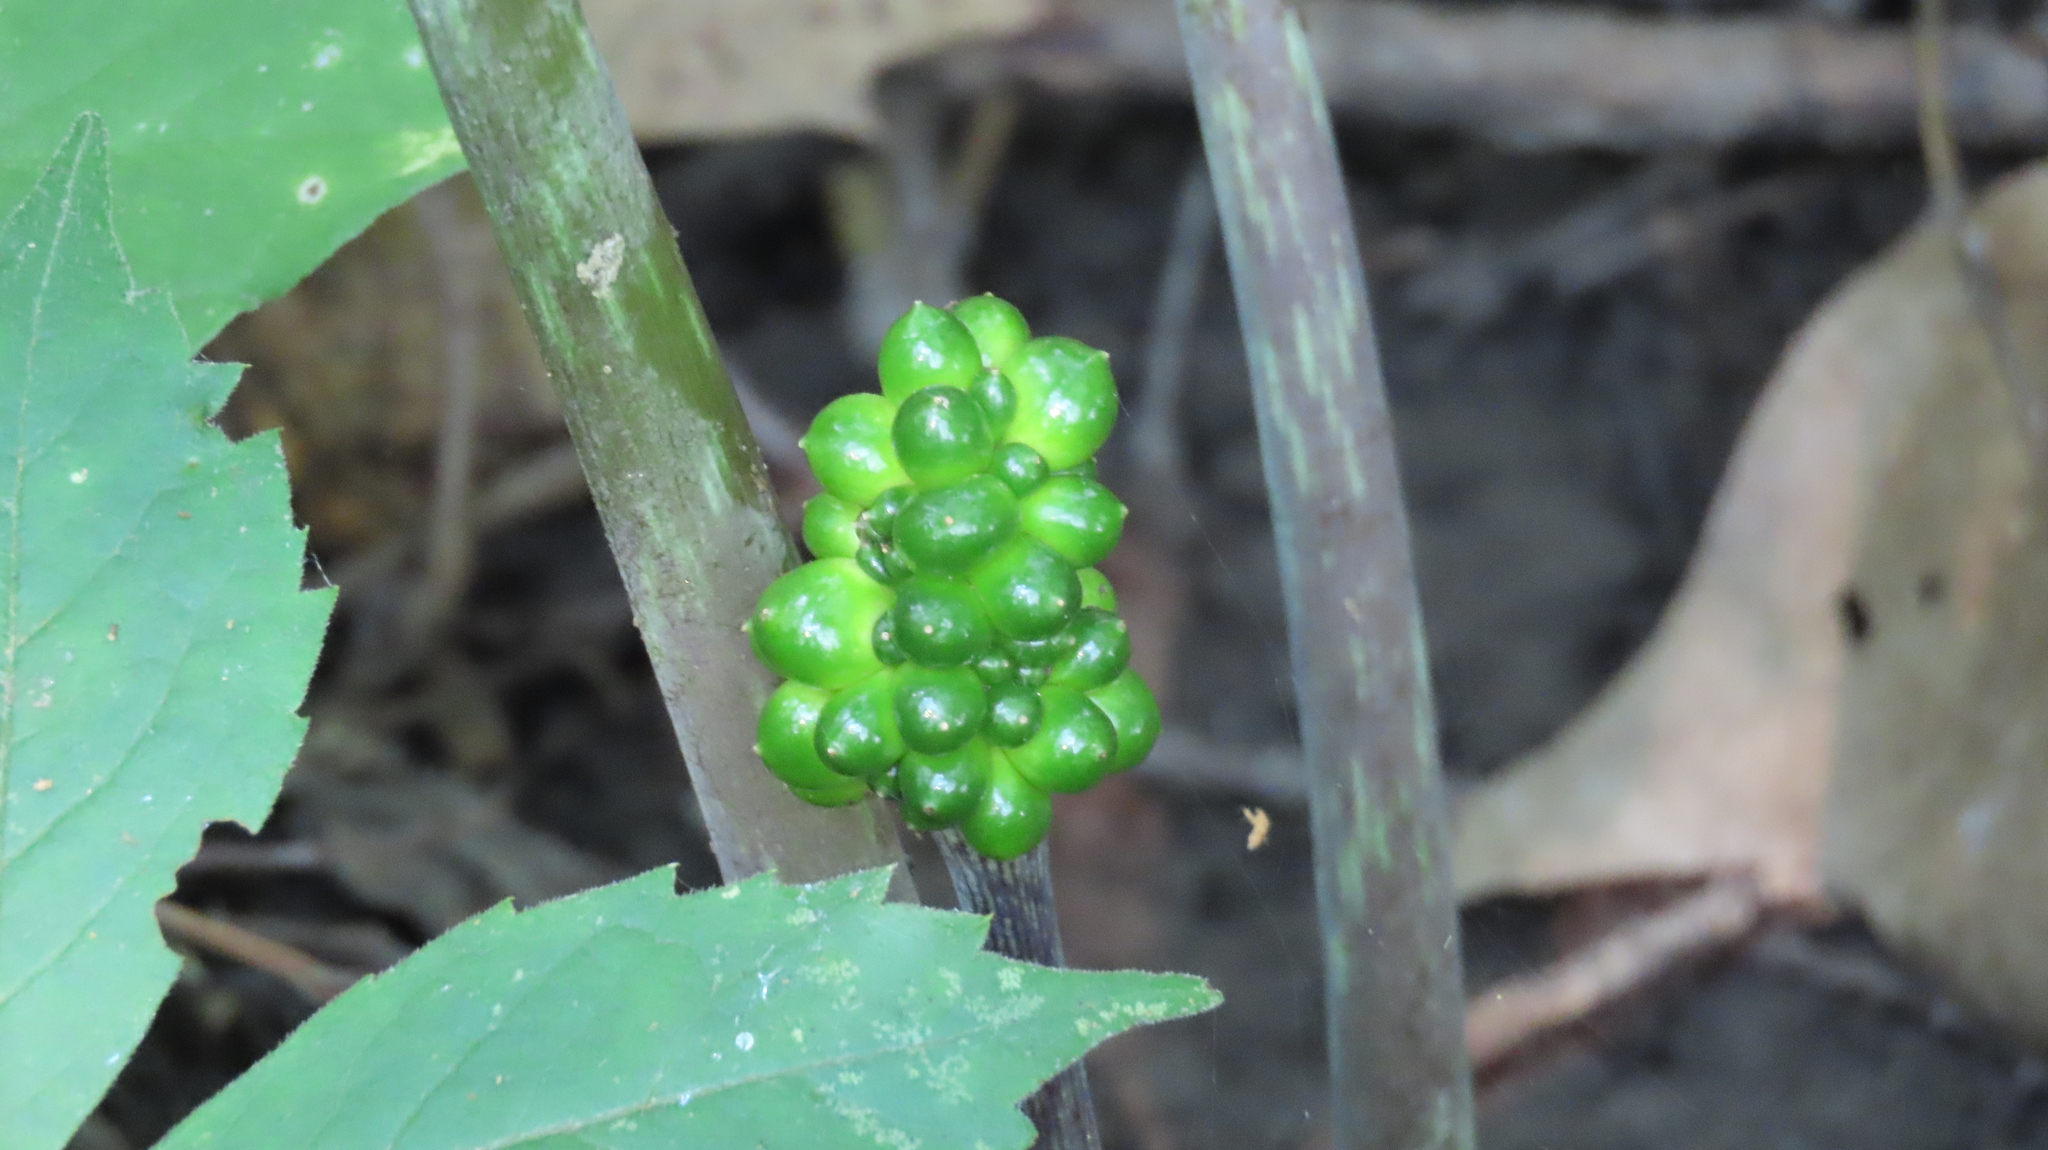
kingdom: Plantae
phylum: Tracheophyta
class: Liliopsida
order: Alismatales
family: Araceae
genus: Arisaema
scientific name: Arisaema triphyllum
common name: Jack-in-the-pulpit
